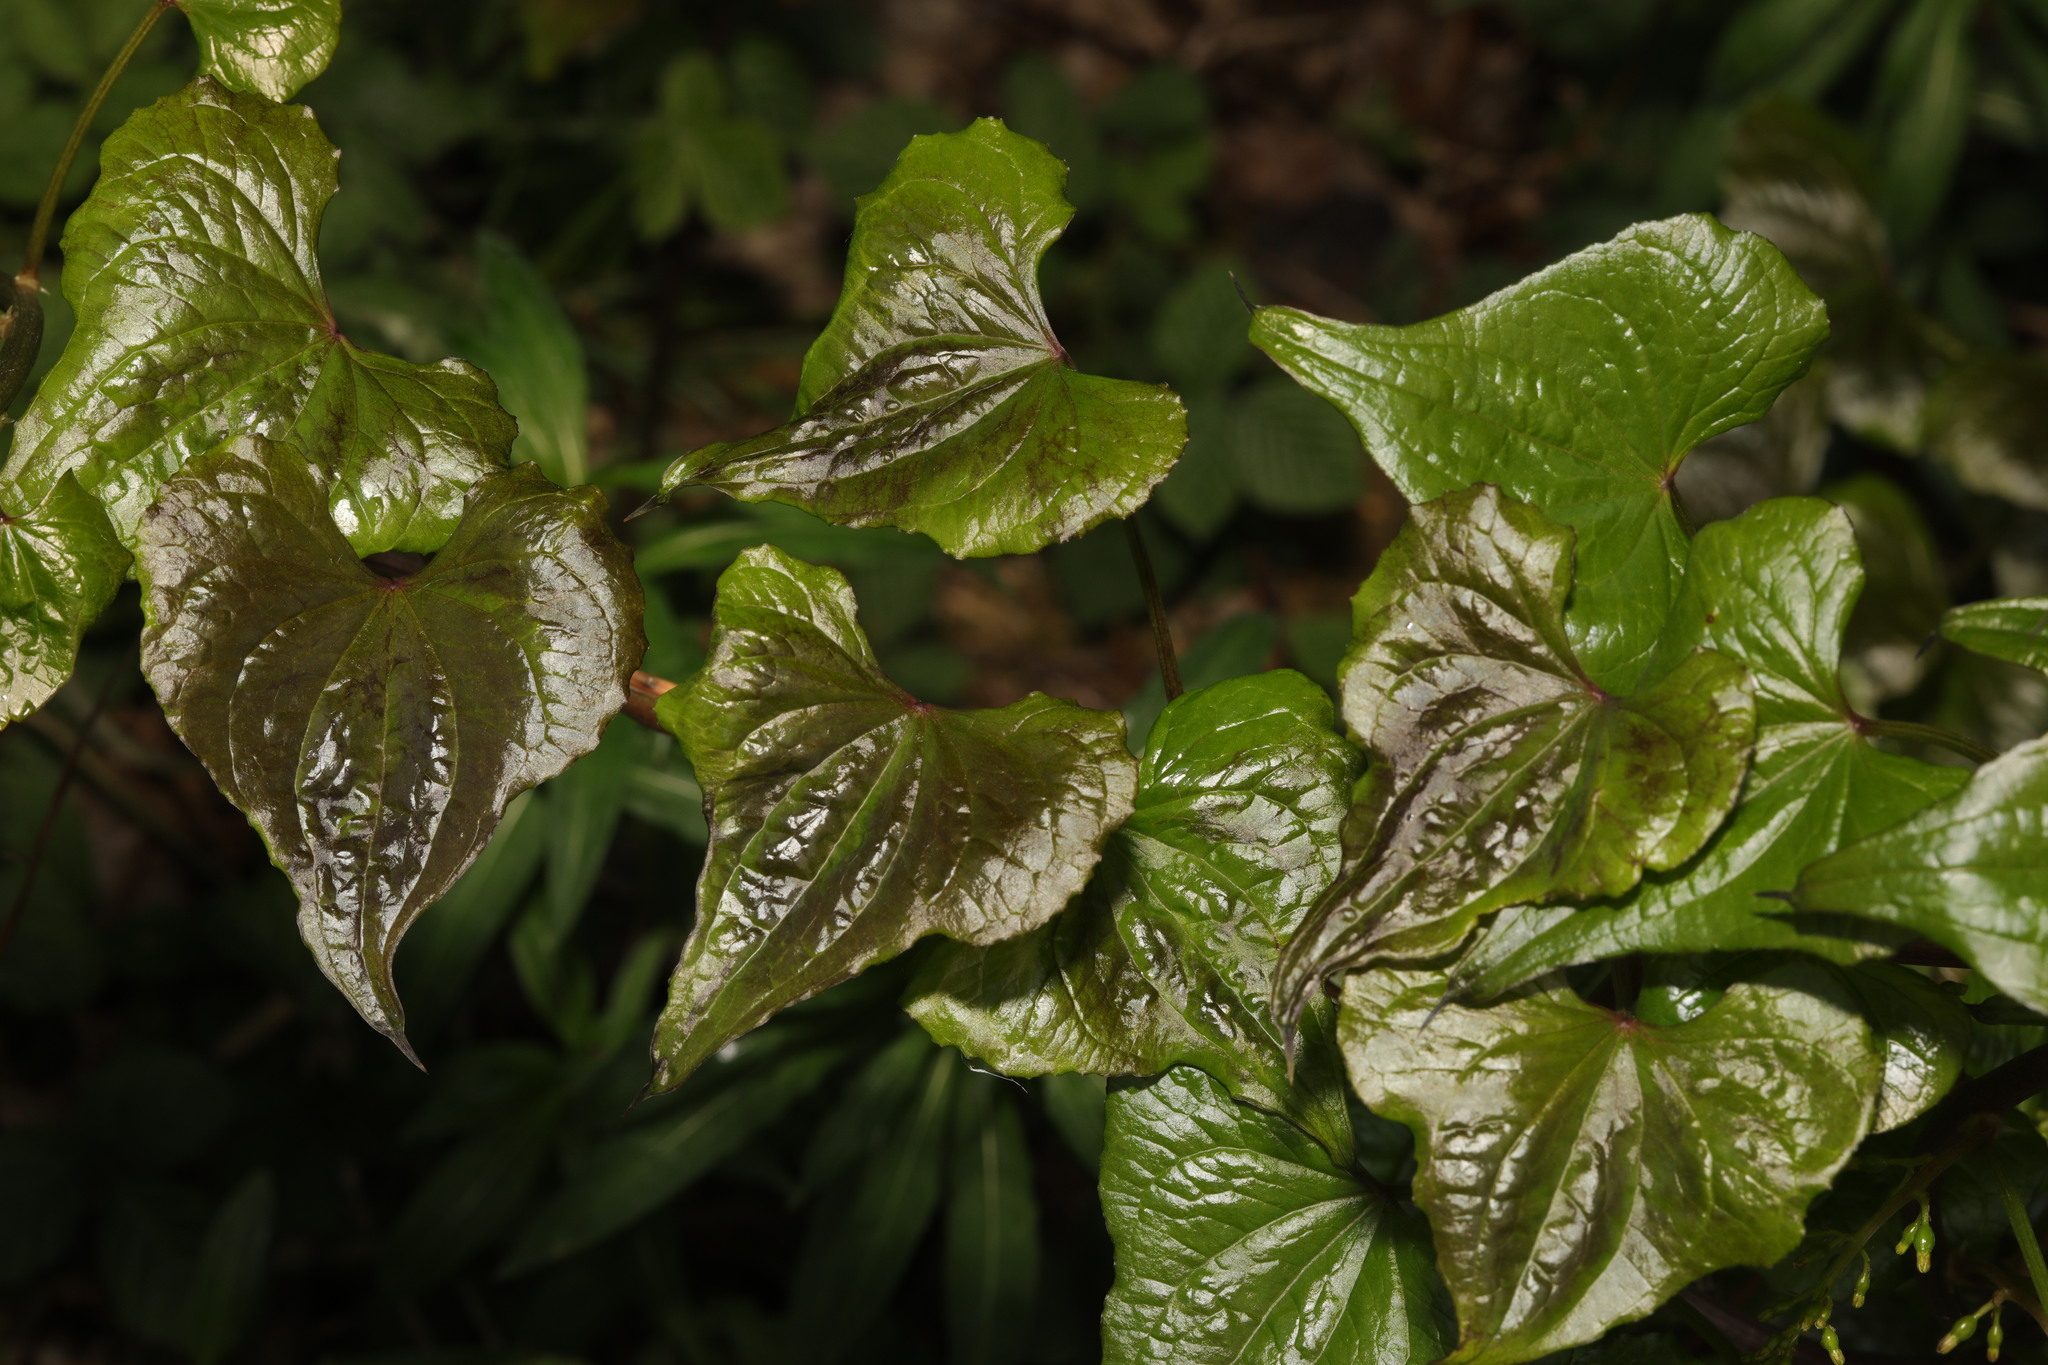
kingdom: Plantae
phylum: Tracheophyta
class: Liliopsida
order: Dioscoreales
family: Dioscoreaceae
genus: Dioscorea
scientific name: Dioscorea communis
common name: Black-bindweed
